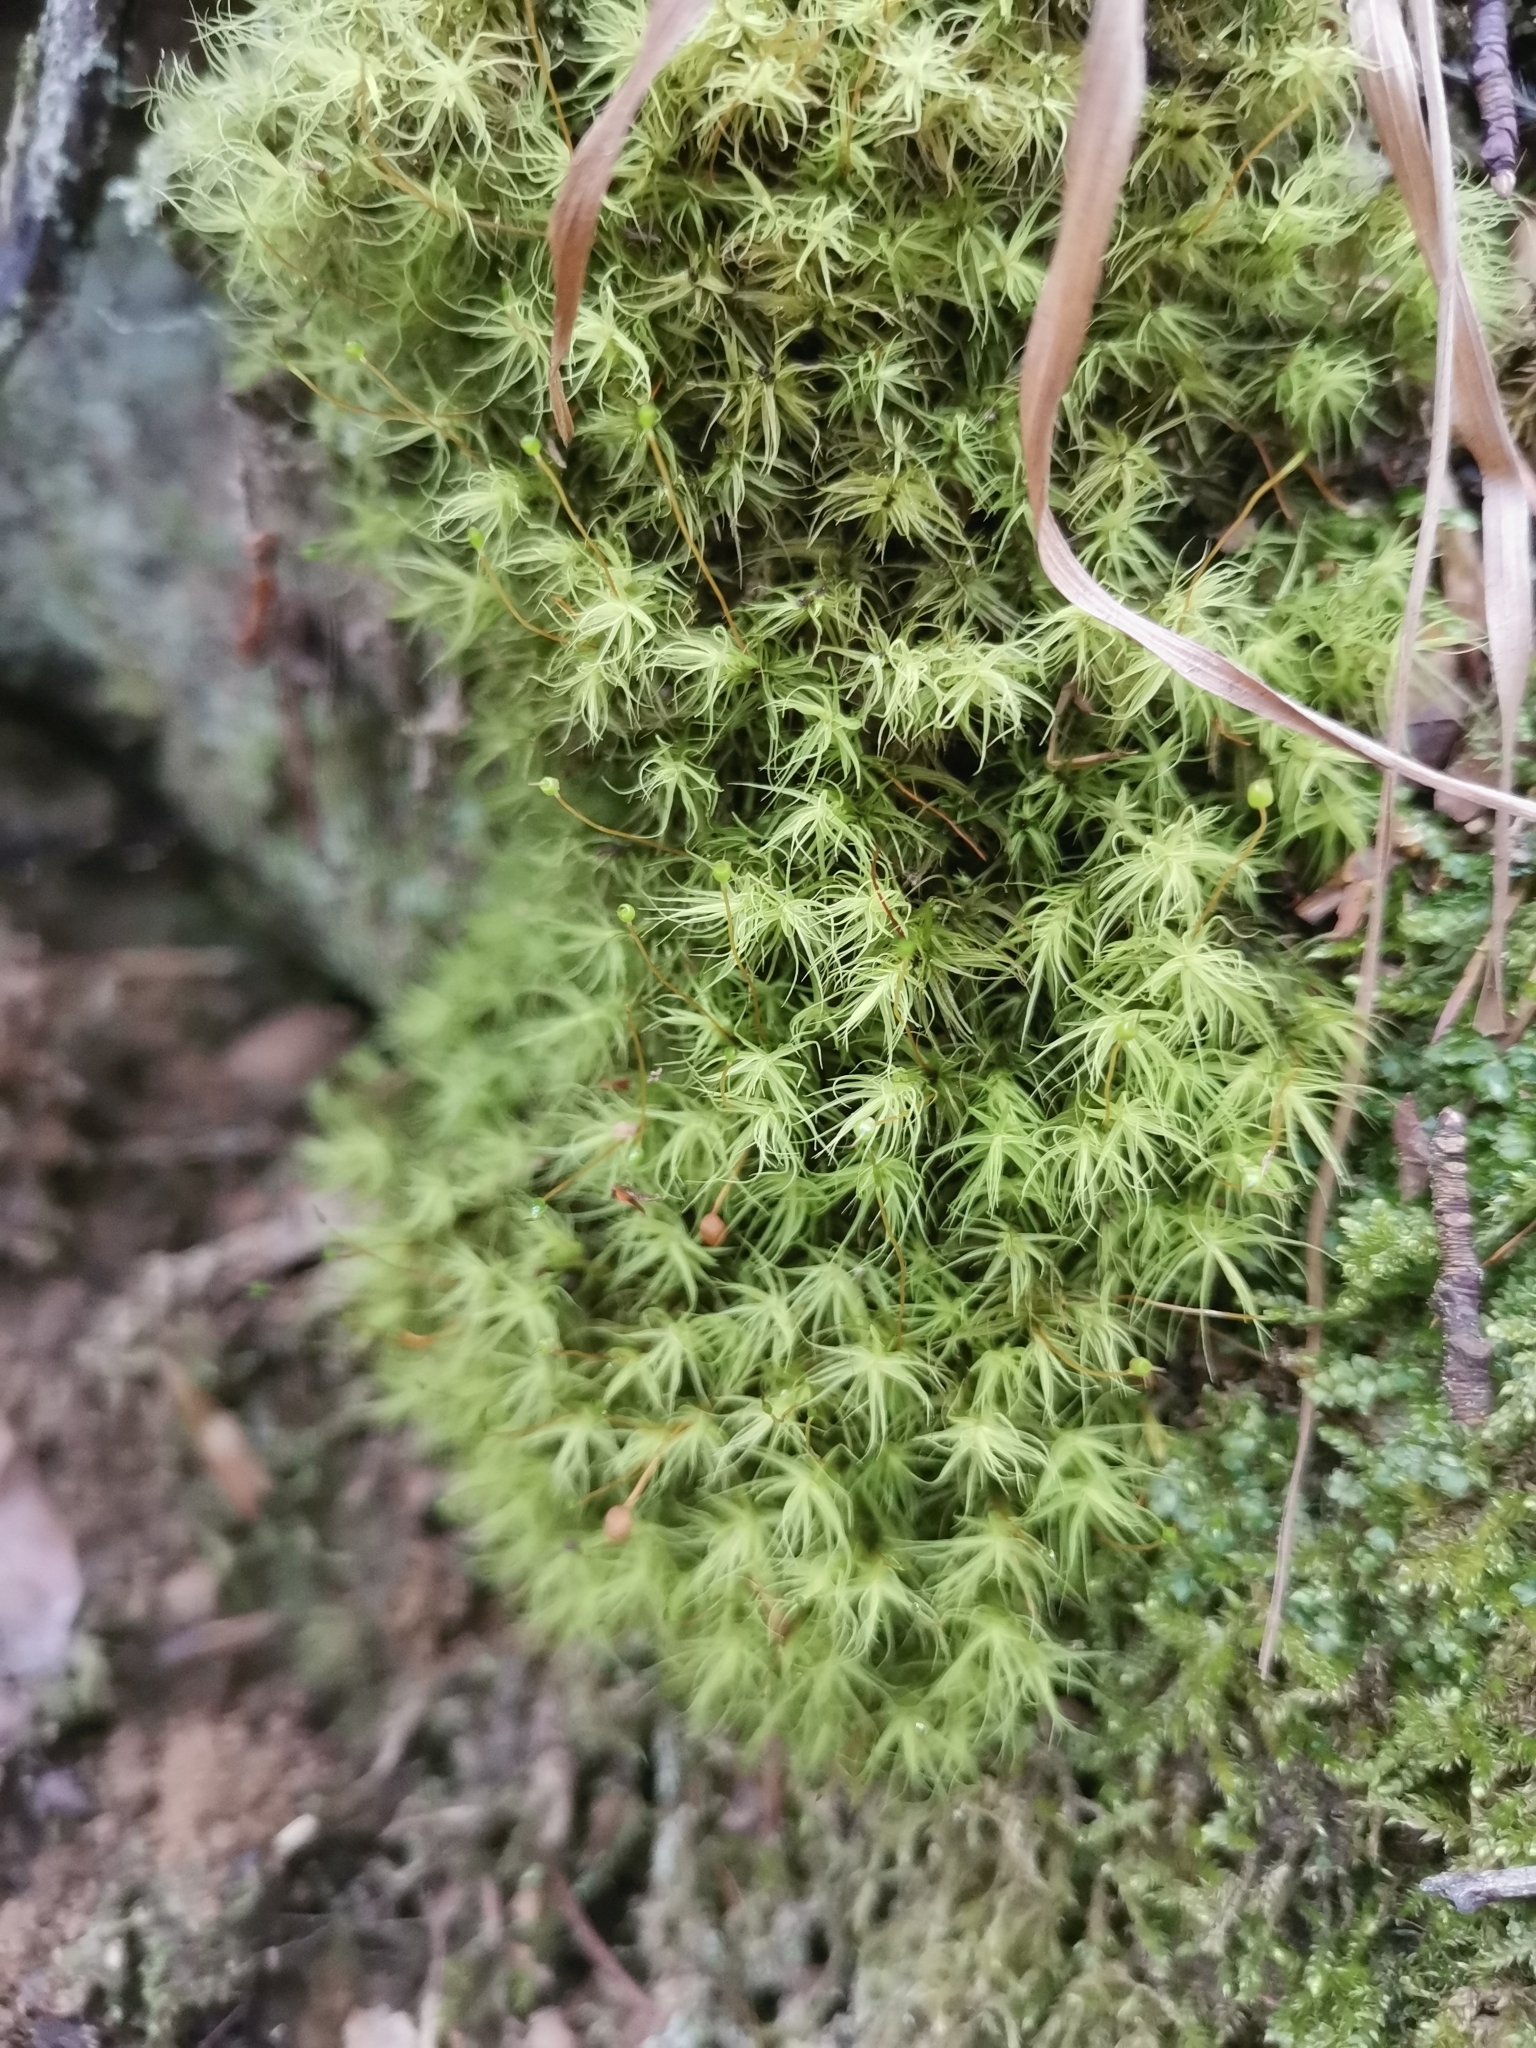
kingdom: Plantae
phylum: Bryophyta
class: Bryopsida
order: Bartramiales
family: Bartramiaceae
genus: Bartramia
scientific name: Bartramia ithyphylla
